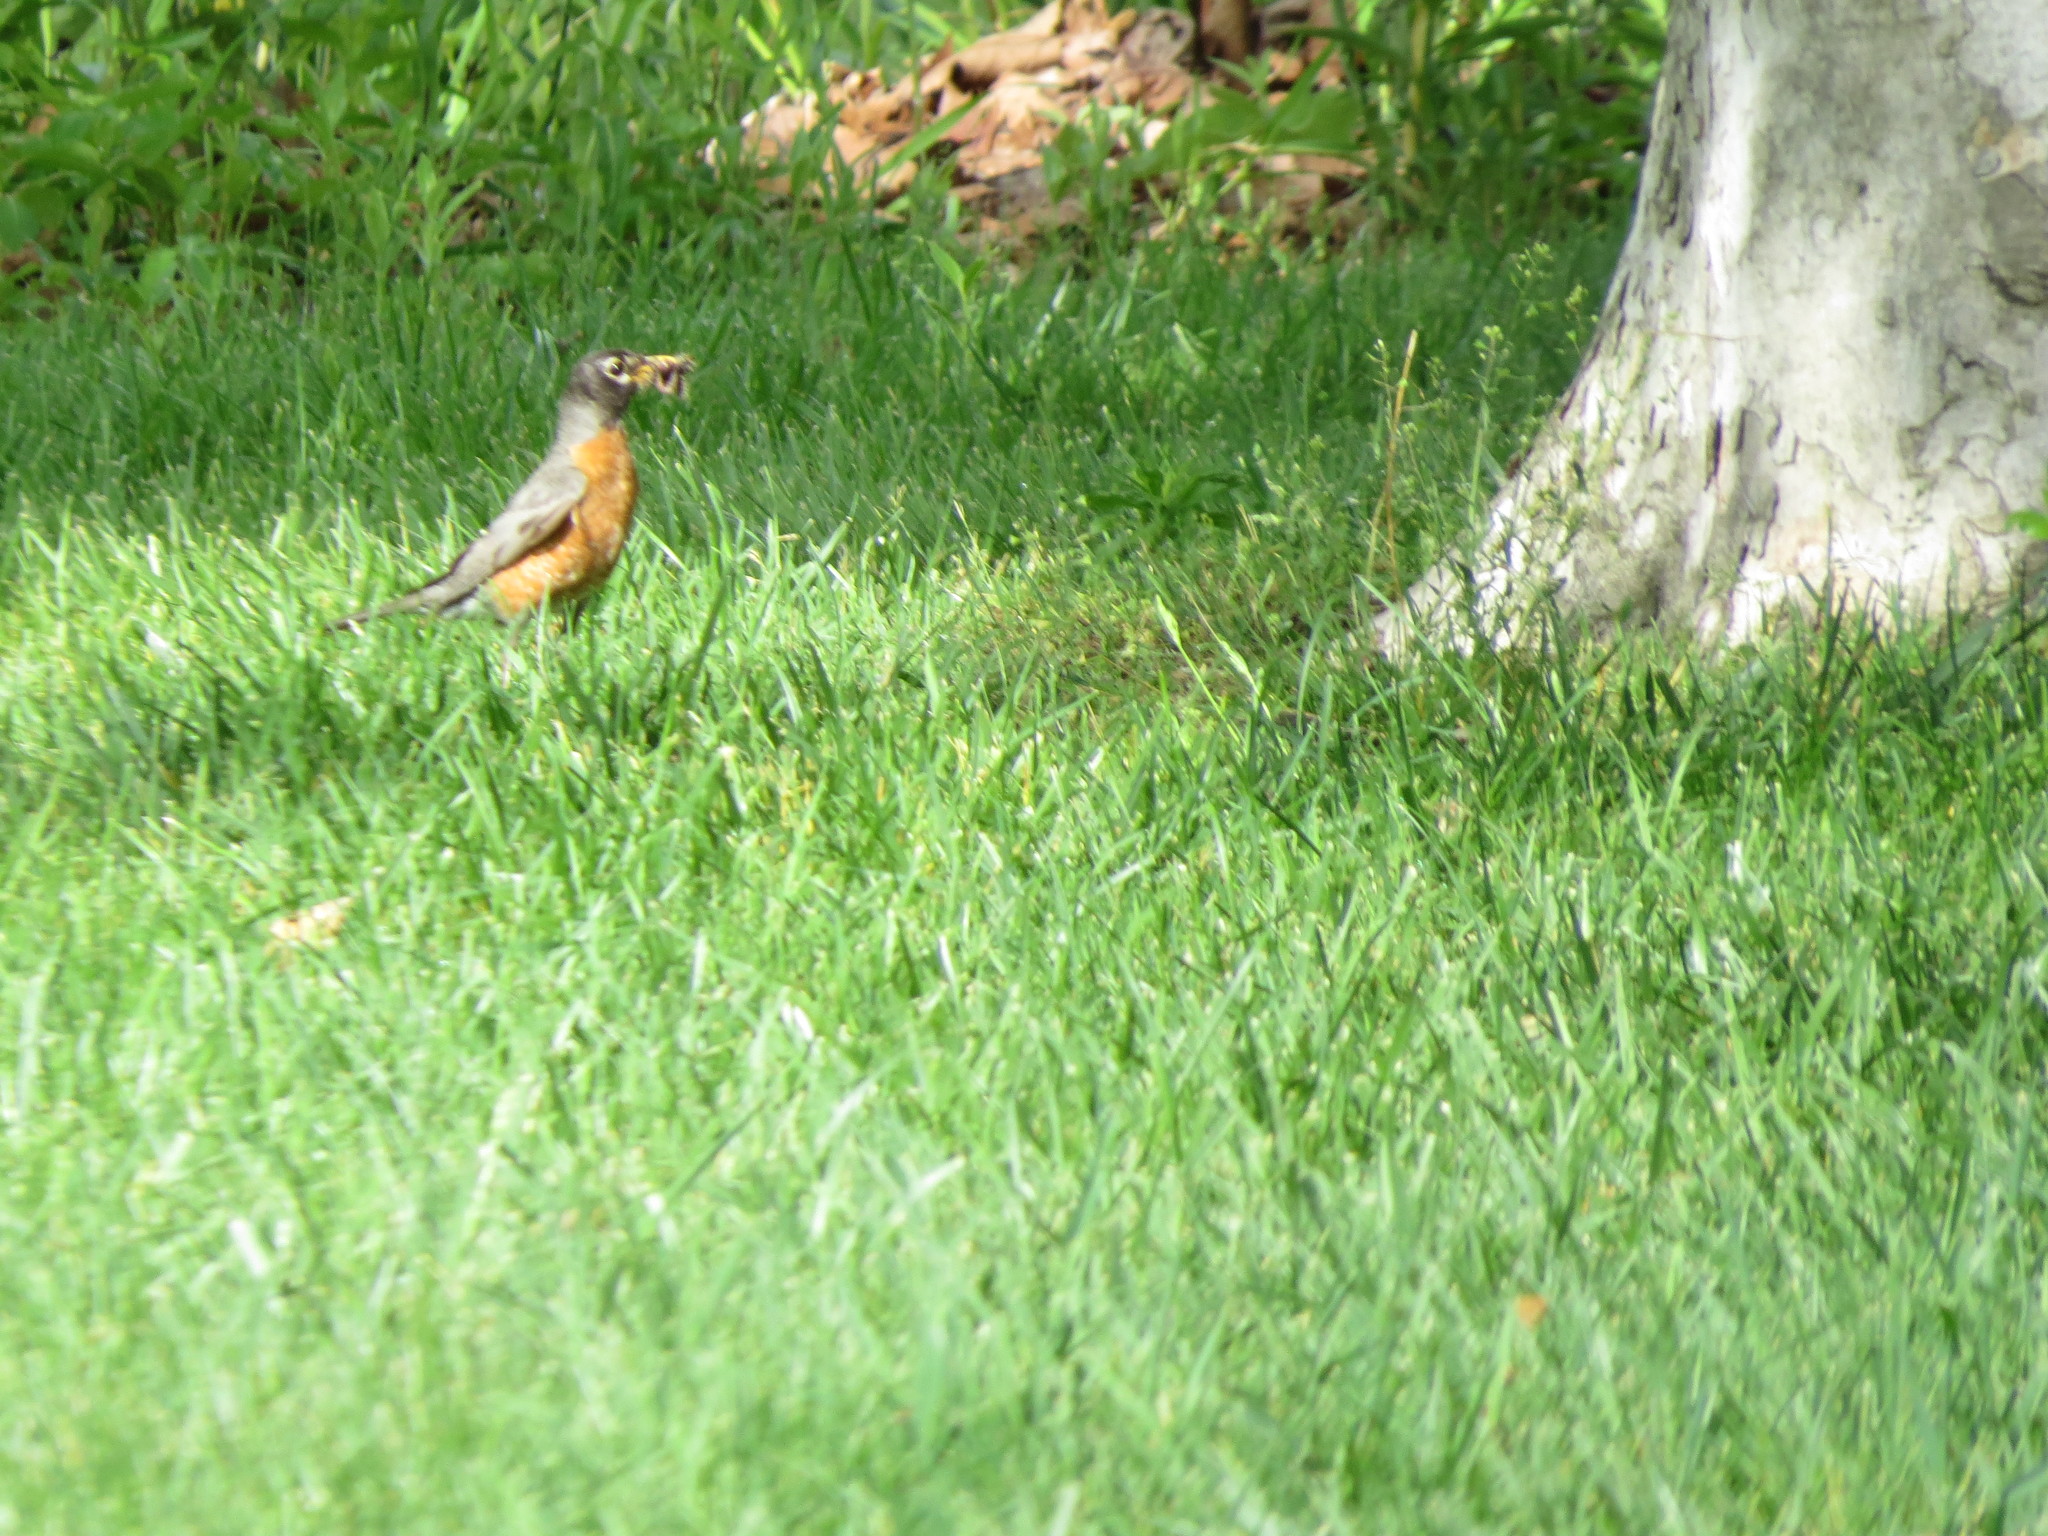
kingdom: Animalia
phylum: Chordata
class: Aves
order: Passeriformes
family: Turdidae
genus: Turdus
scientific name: Turdus migratorius
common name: American robin
